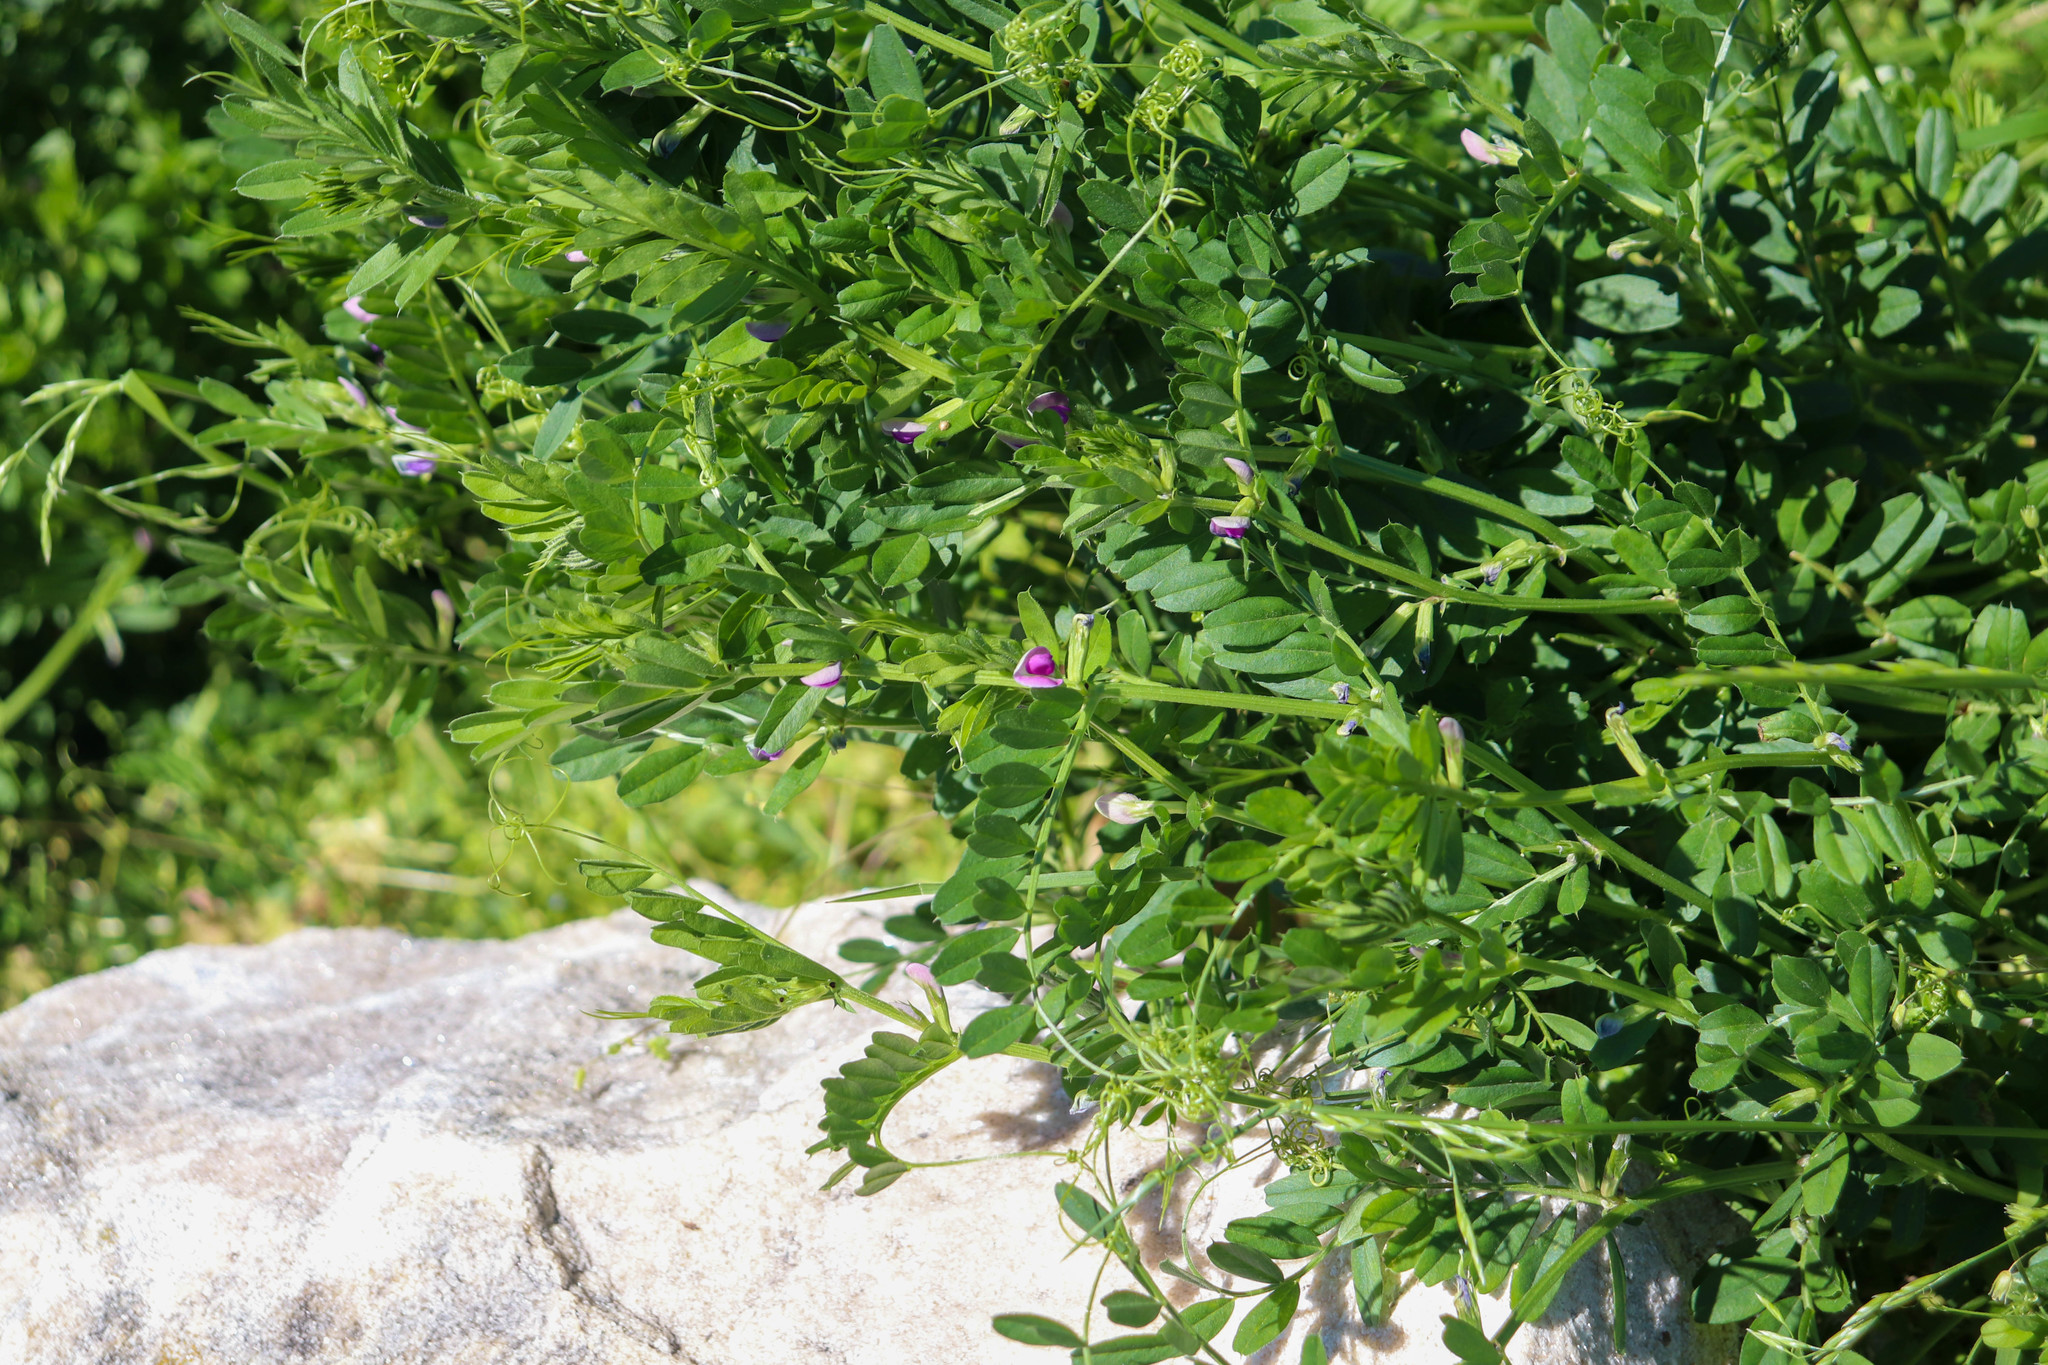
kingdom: Plantae
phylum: Tracheophyta
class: Magnoliopsida
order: Fabales
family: Fabaceae
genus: Vicia
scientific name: Vicia sativa
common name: Garden vetch
